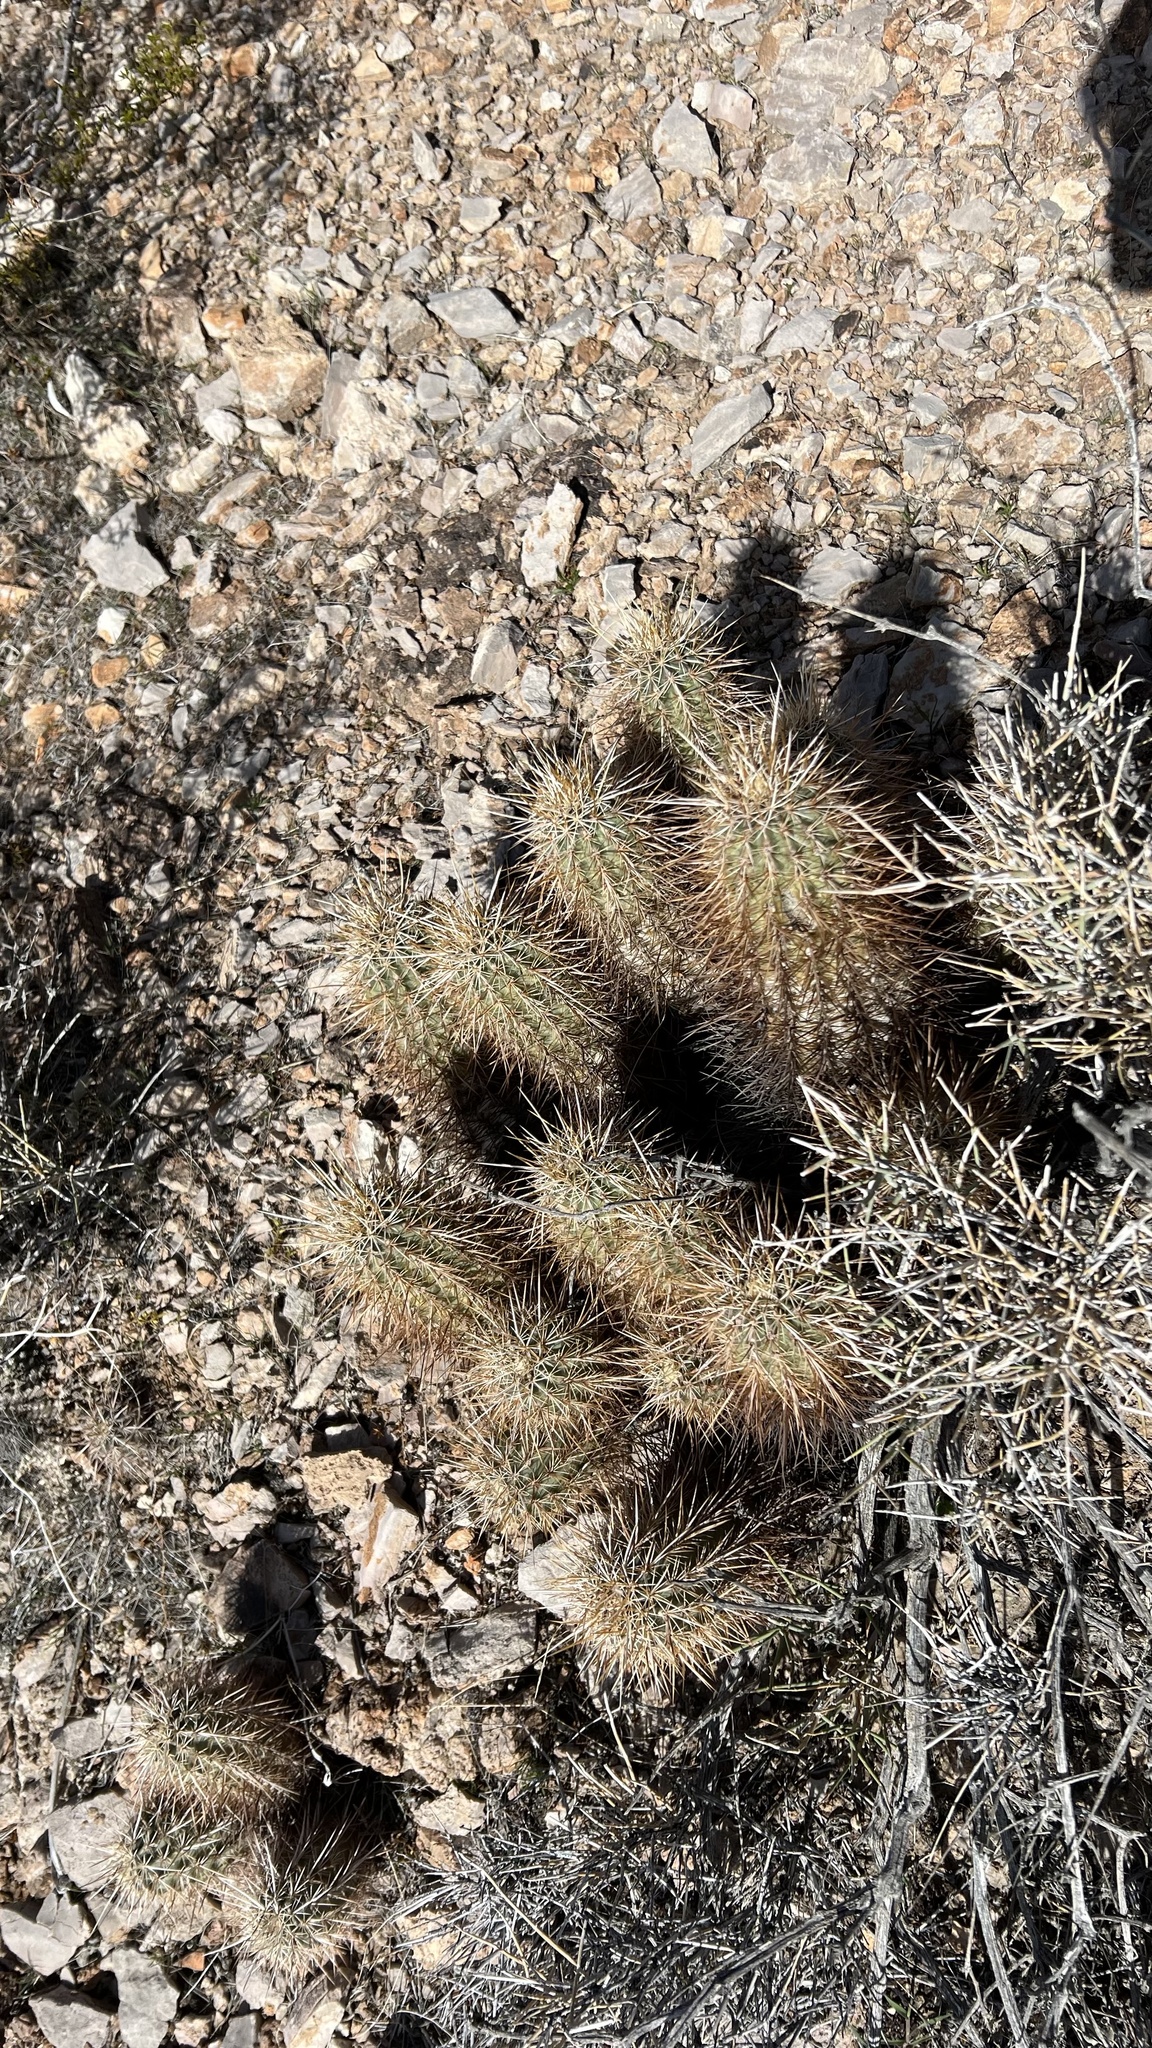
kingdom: Plantae
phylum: Tracheophyta
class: Magnoliopsida
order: Caryophyllales
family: Cactaceae
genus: Echinocereus
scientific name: Echinocereus engelmannii
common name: Engelmann's hedgehog cactus
